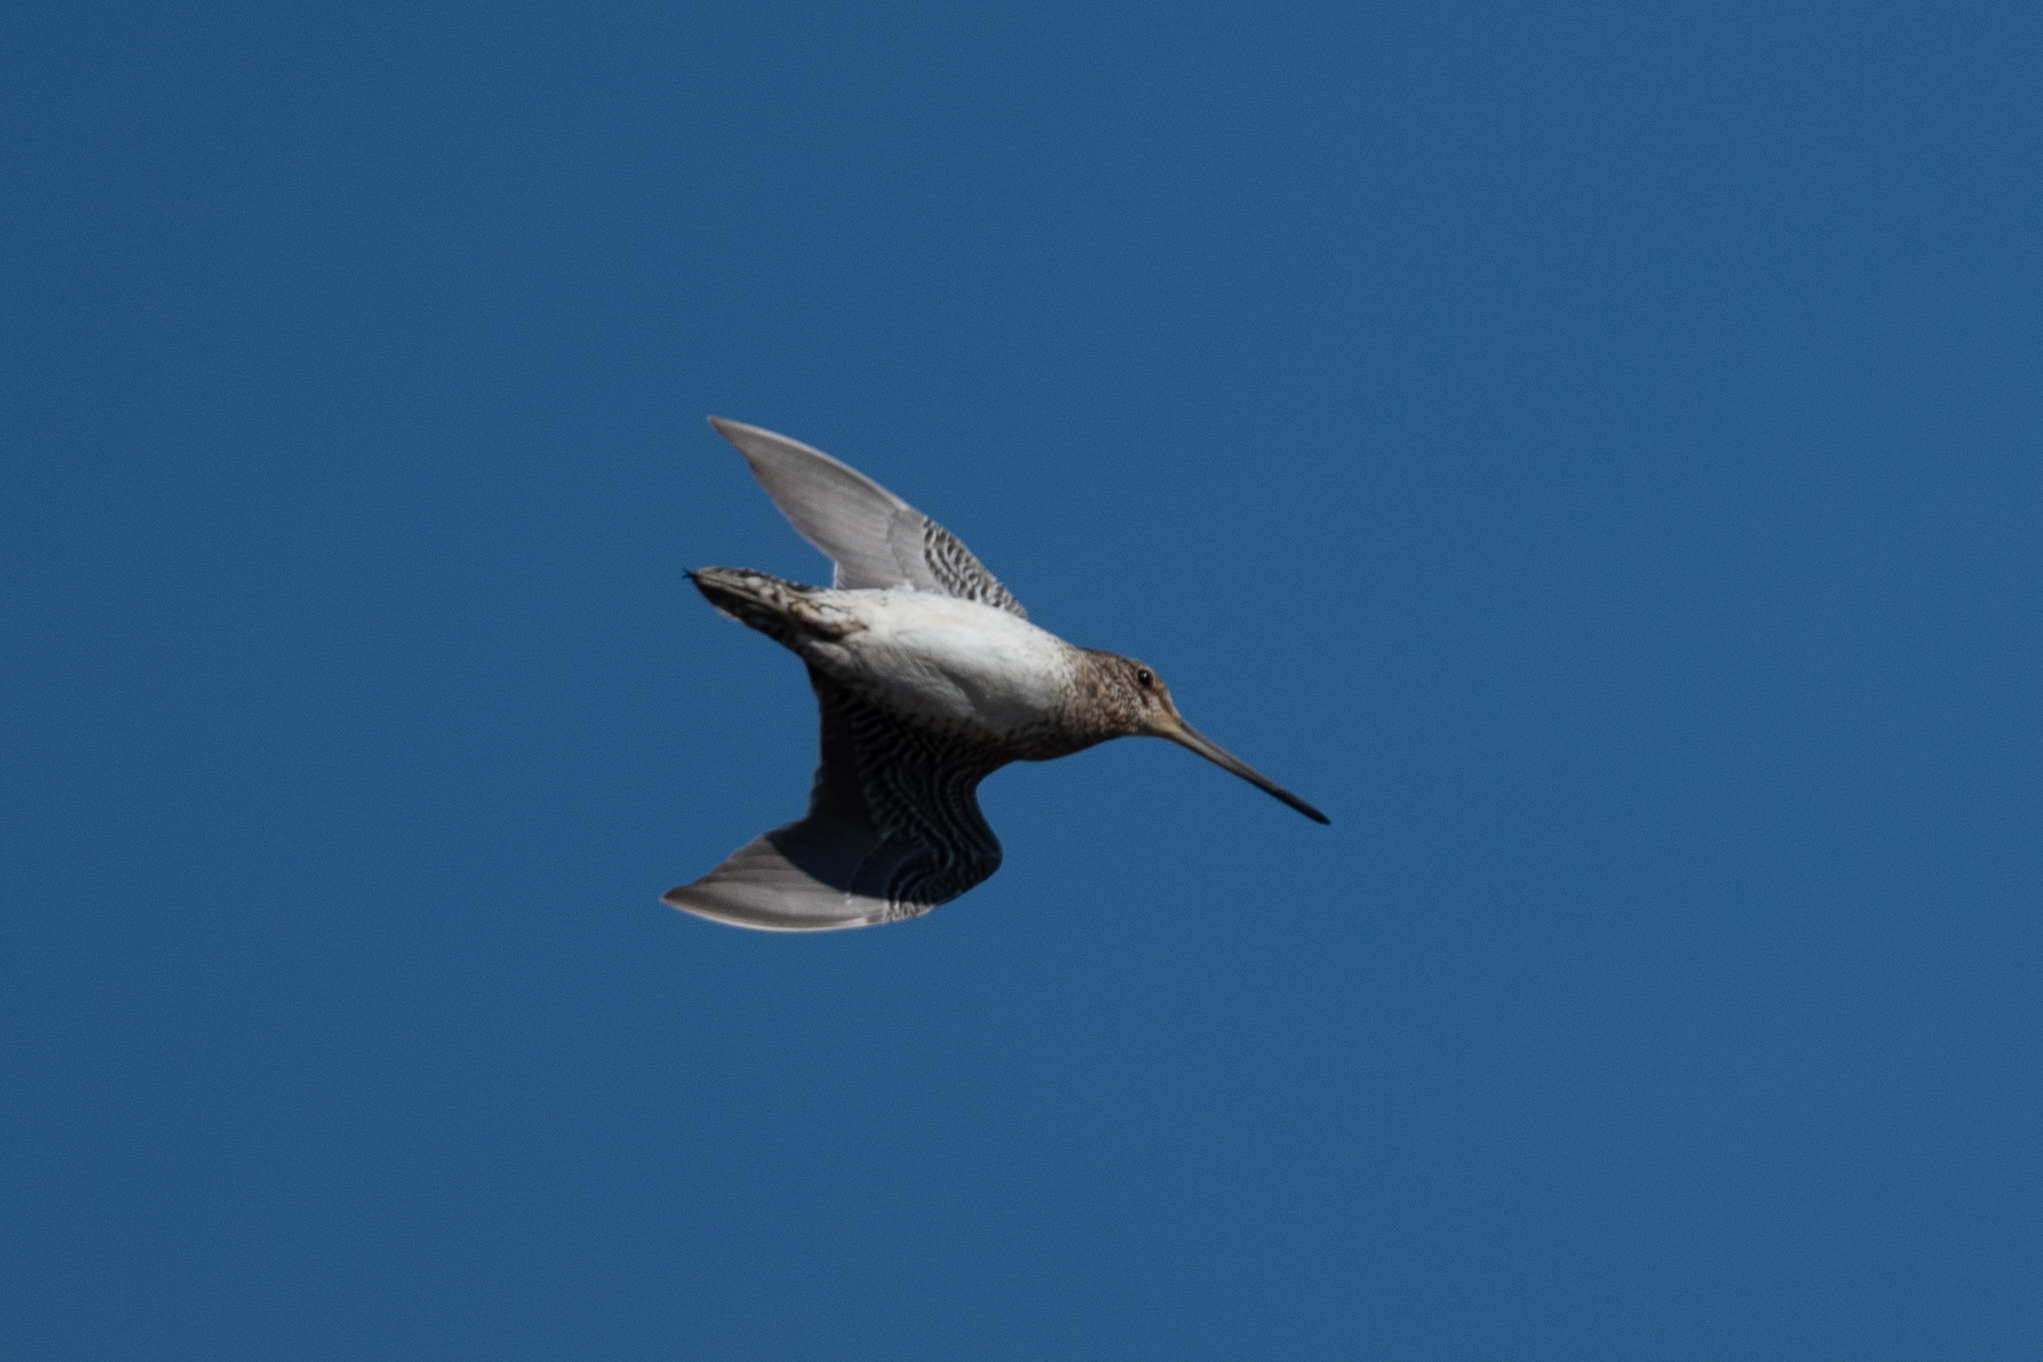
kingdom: Animalia
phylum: Chordata
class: Aves
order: Charadriiformes
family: Scolopacidae
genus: Gallinago
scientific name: Gallinago delicata
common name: Wilson's snipe
